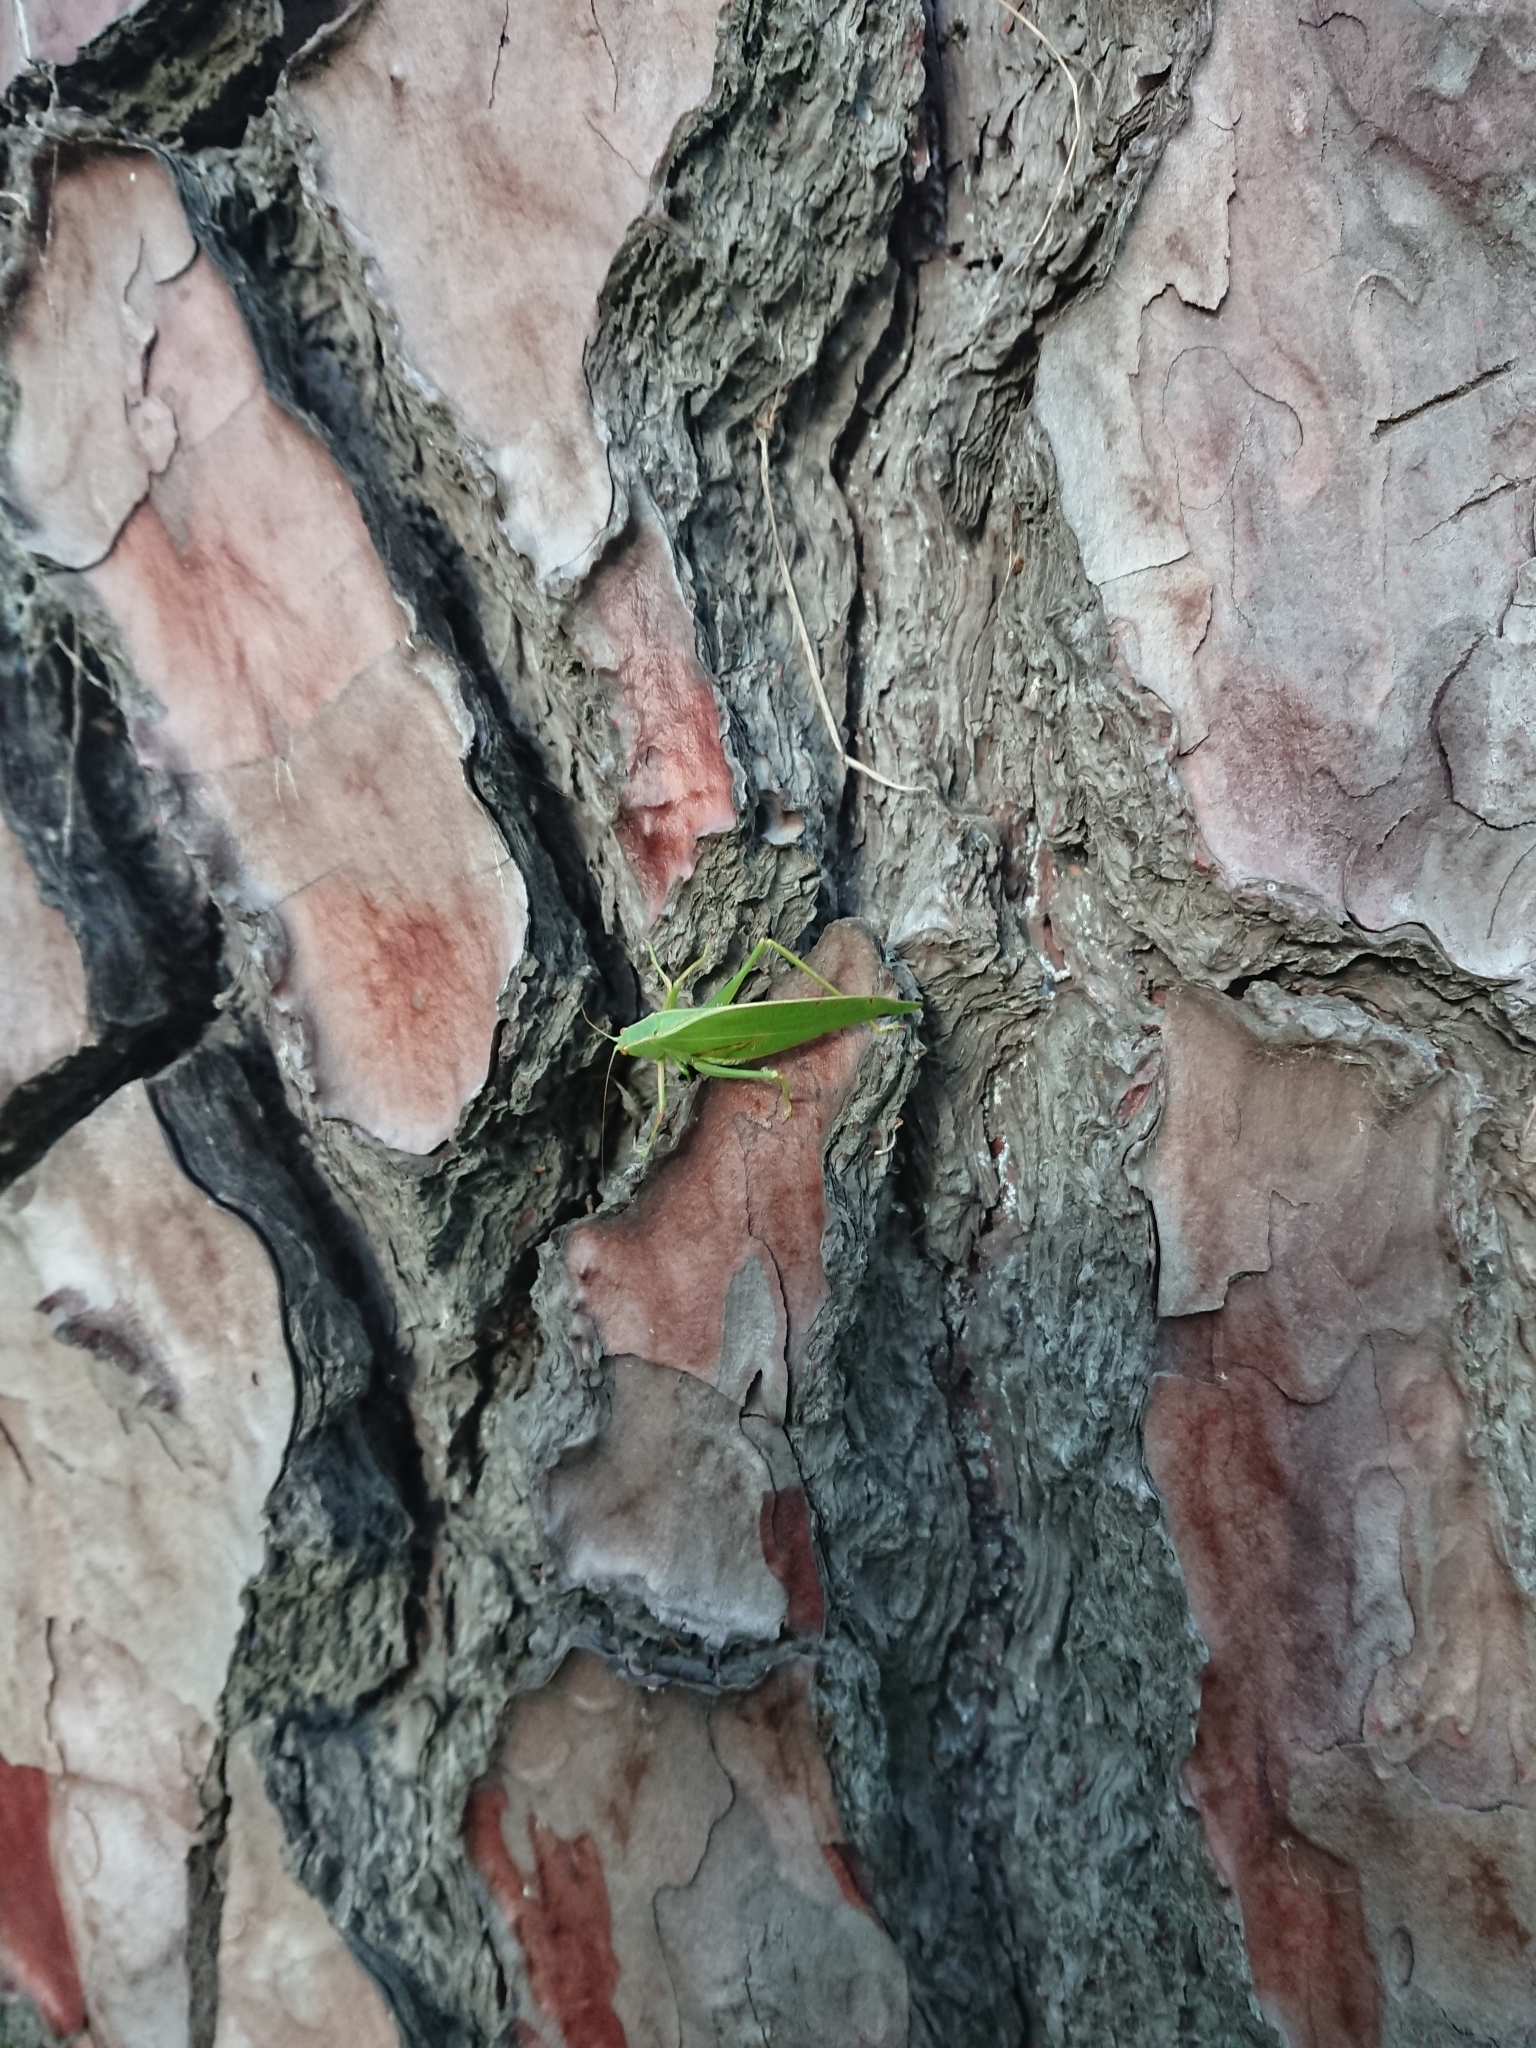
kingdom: Animalia
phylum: Arthropoda
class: Insecta
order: Orthoptera
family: Tettigoniidae
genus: Caedicia
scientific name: Caedicia simplex
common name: Common garden katydid
